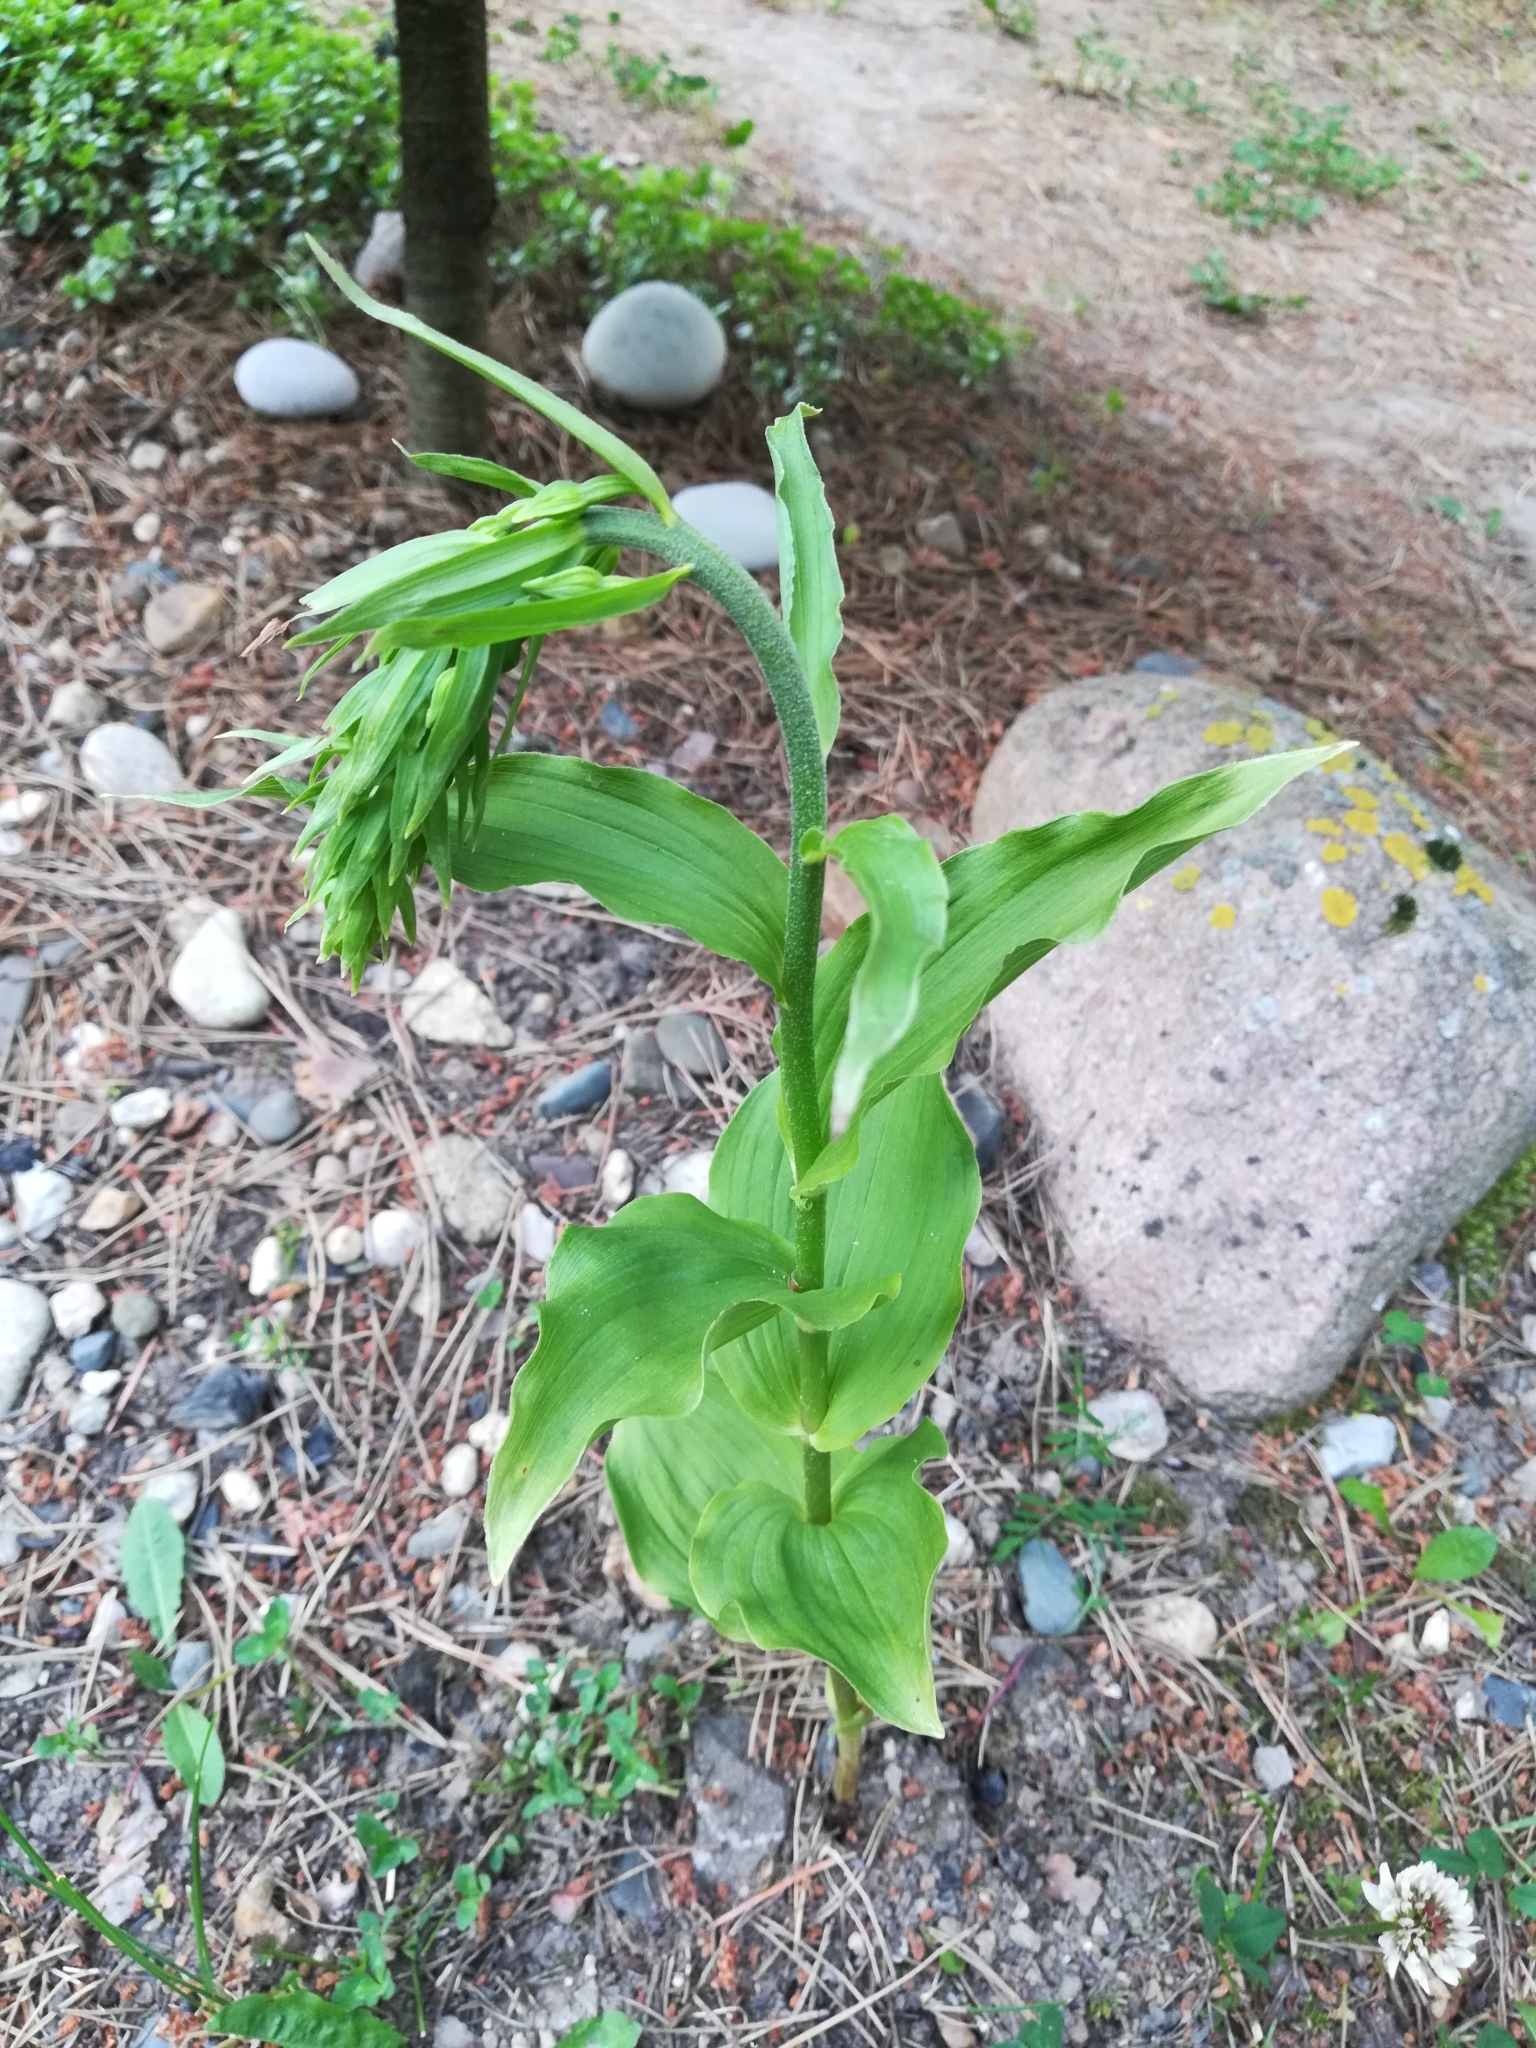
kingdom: Plantae
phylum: Tracheophyta
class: Liliopsida
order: Asparagales
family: Orchidaceae
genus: Epipactis
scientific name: Epipactis helleborine
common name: Broad-leaved helleborine
